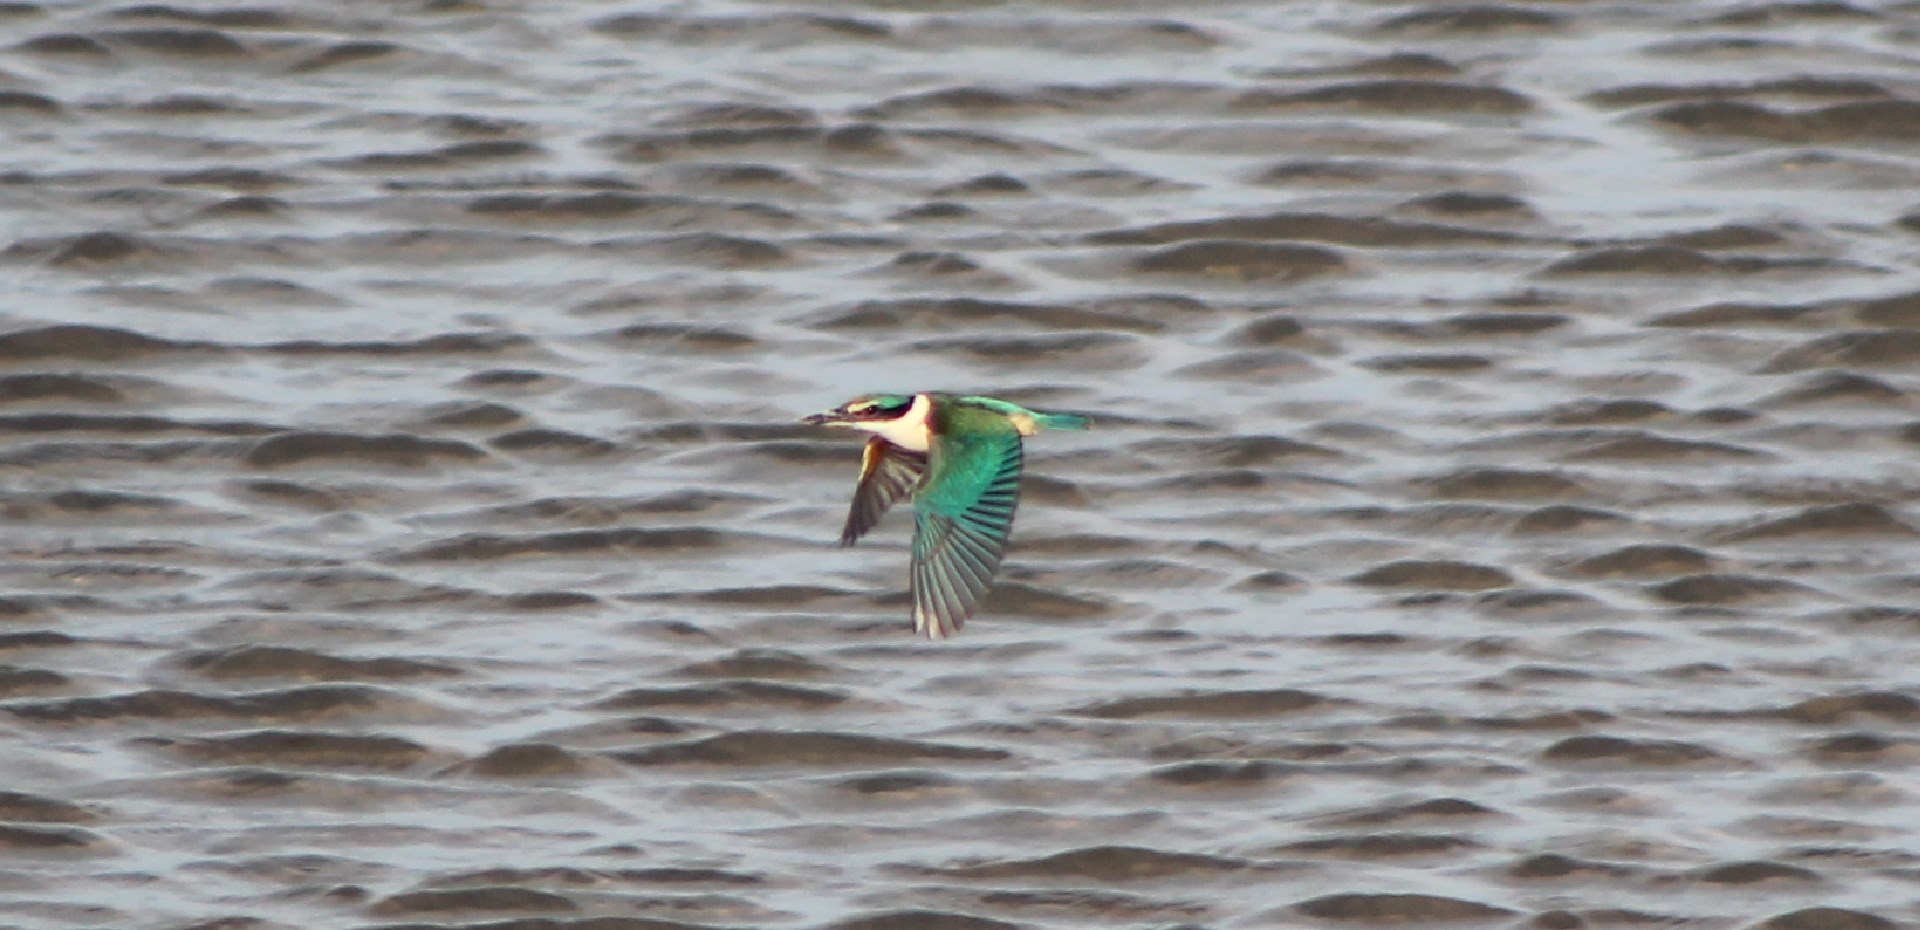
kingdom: Animalia
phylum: Chordata
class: Aves
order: Coraciiformes
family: Alcedinidae
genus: Todiramphus
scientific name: Todiramphus sanctus
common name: Sacred kingfisher
